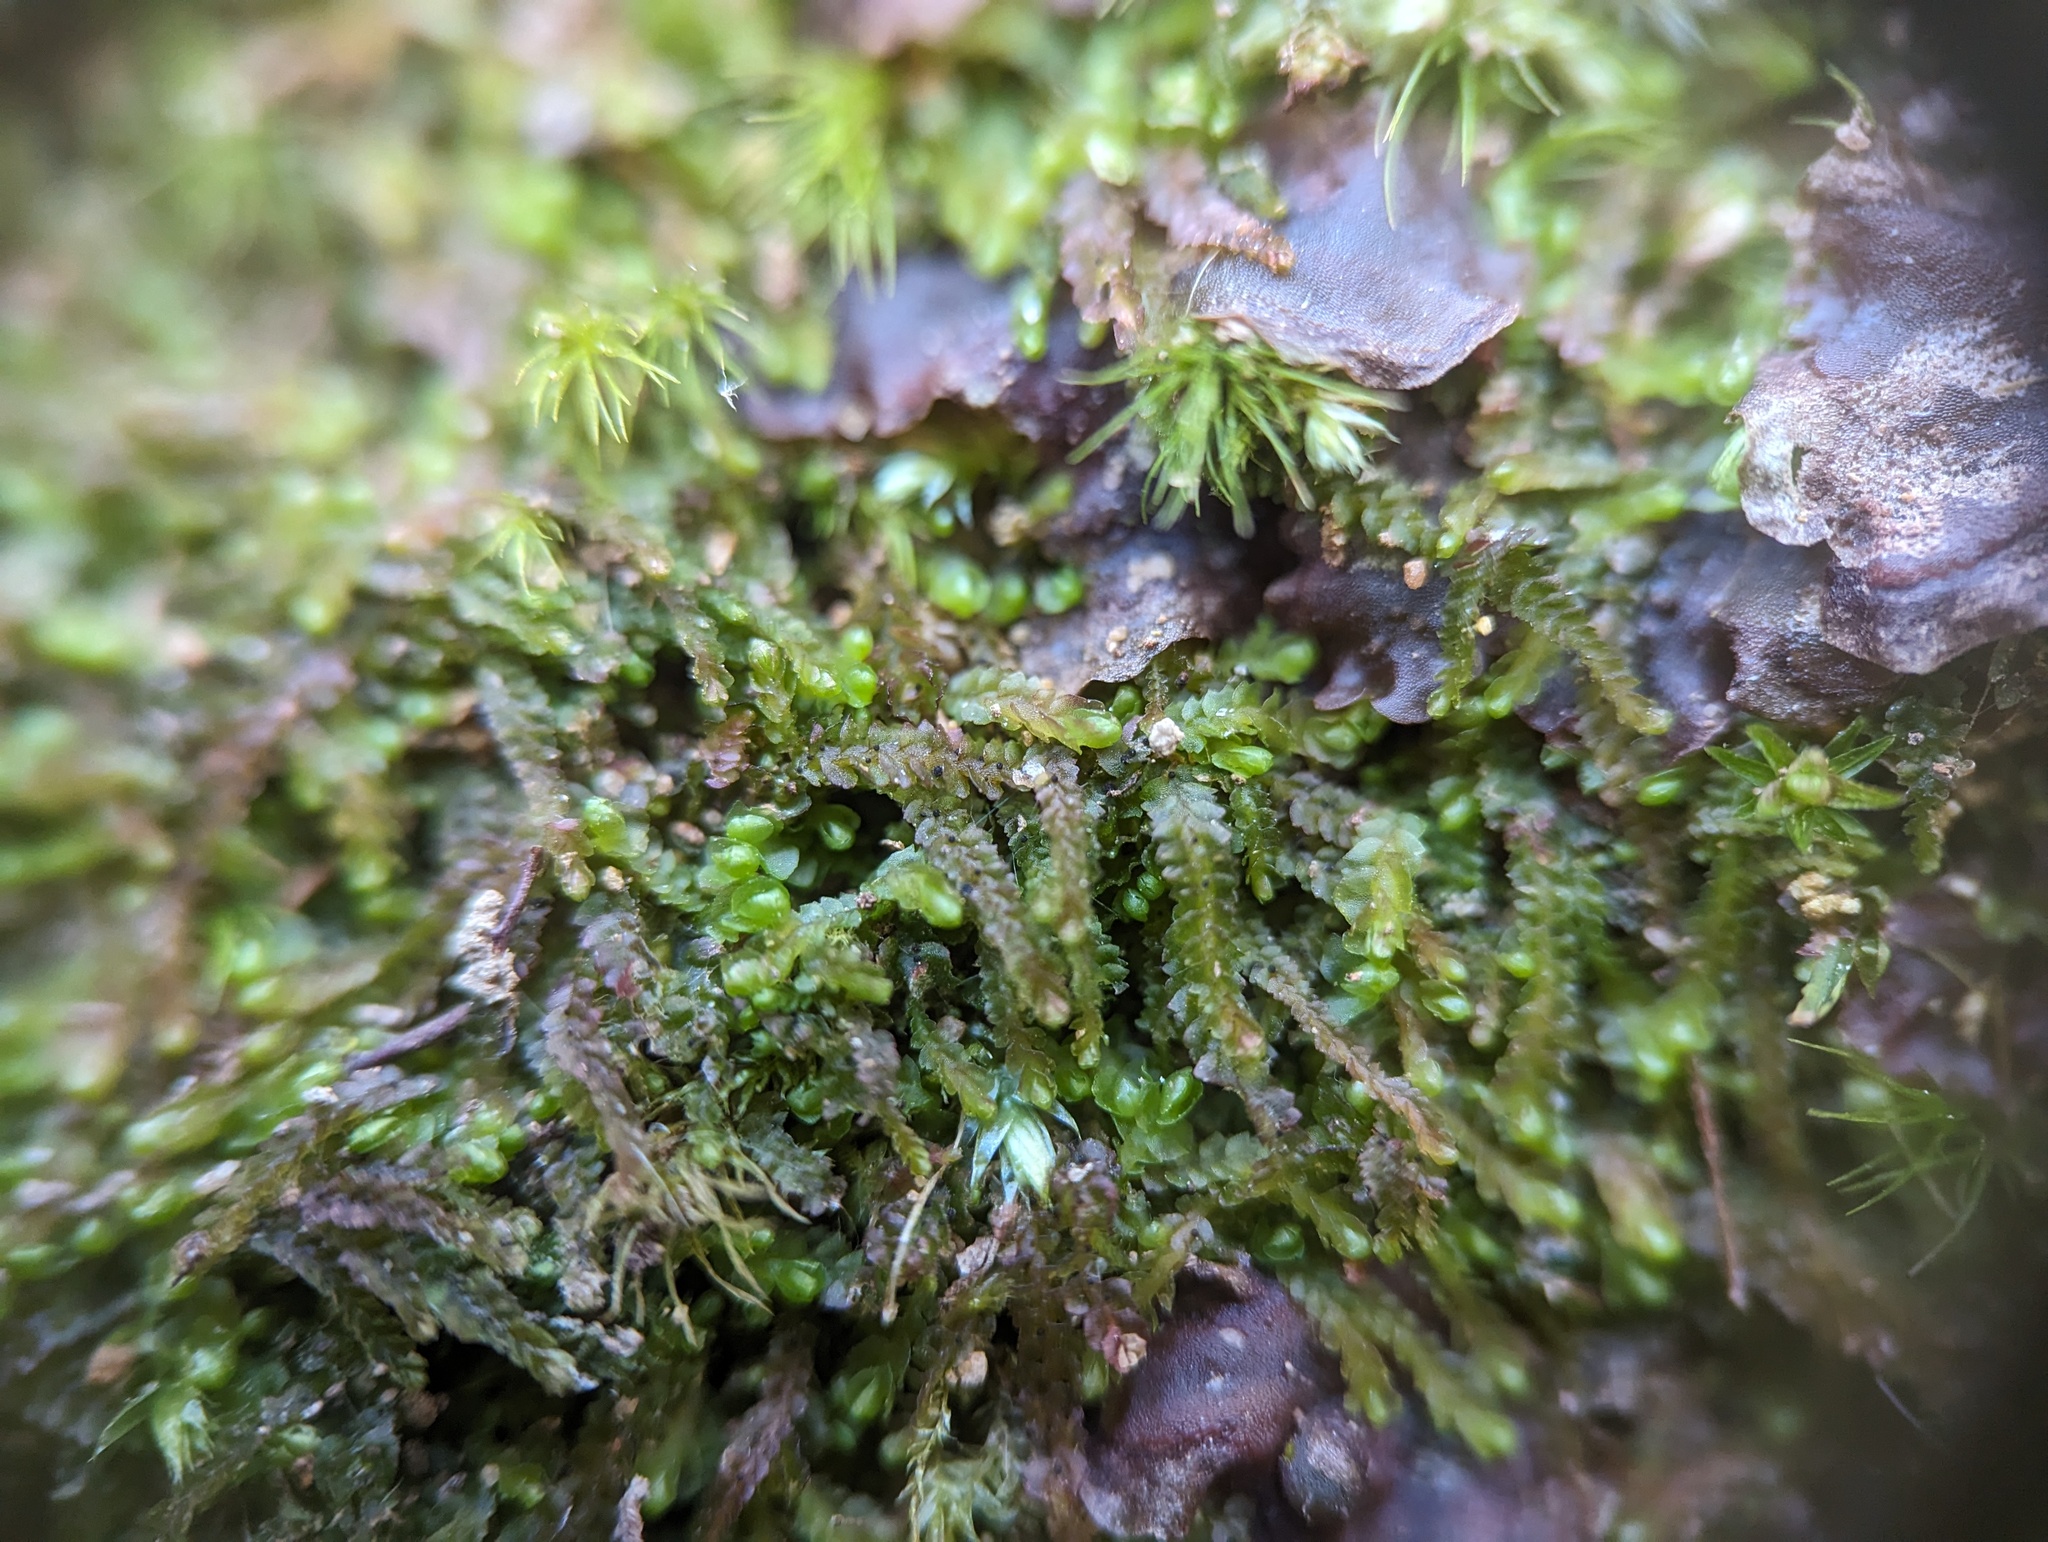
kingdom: Plantae
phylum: Marchantiophyta
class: Jungermanniopsida
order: Jungermanniales
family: Gymnomitriaceae
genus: Nardia
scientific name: Nardia lescurii
